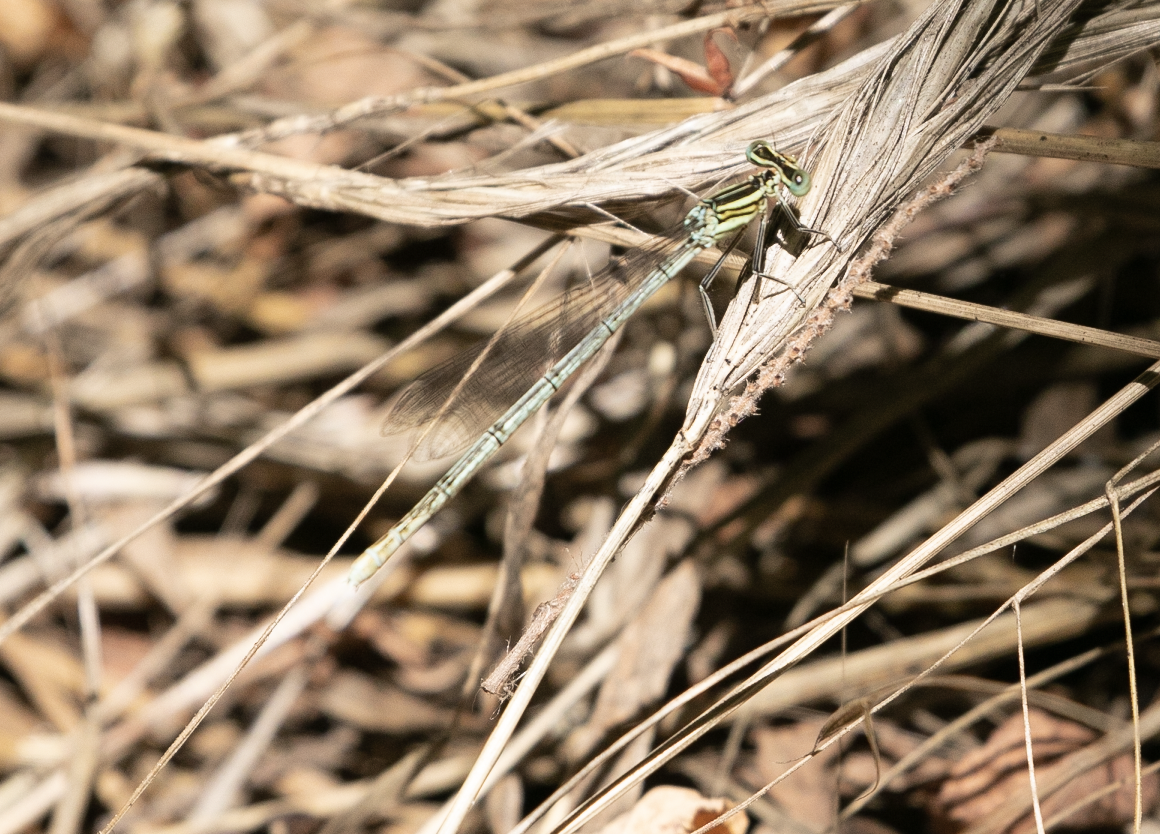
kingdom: Animalia
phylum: Arthropoda
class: Insecta
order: Odonata
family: Platycnemididae
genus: Platycnemis
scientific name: Platycnemis pennipes
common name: White-legged damselfly
